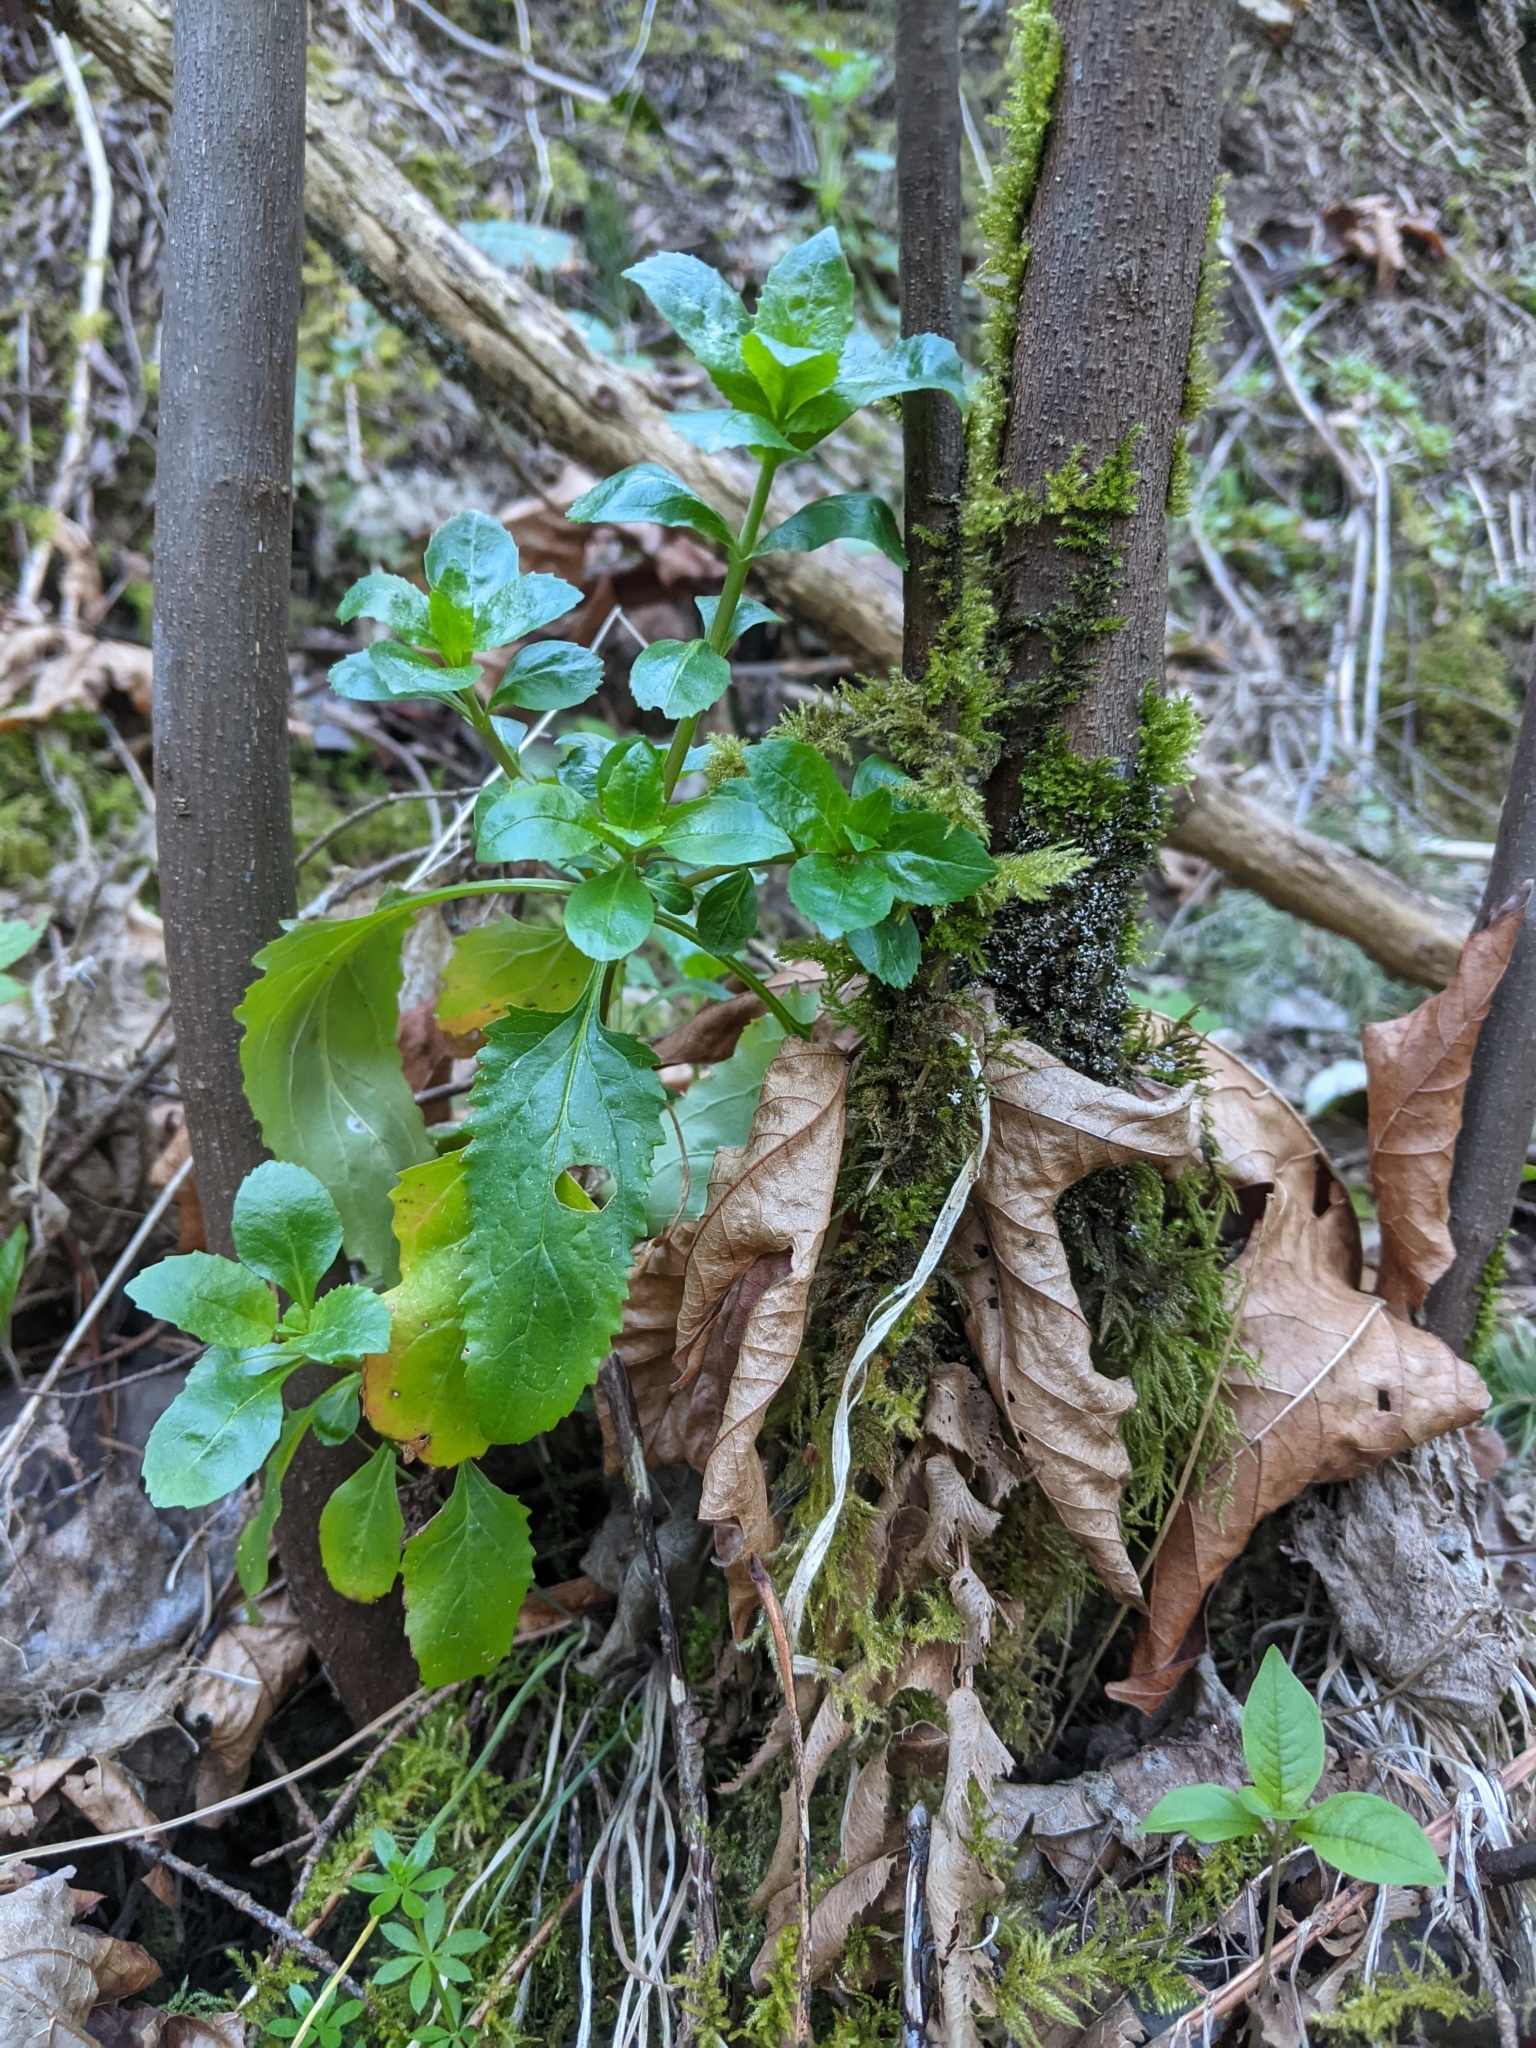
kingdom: Plantae
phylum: Tracheophyta
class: Magnoliopsida
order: Lamiales
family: Plantaginaceae
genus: Penstemon
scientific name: Penstemon serrulatus
